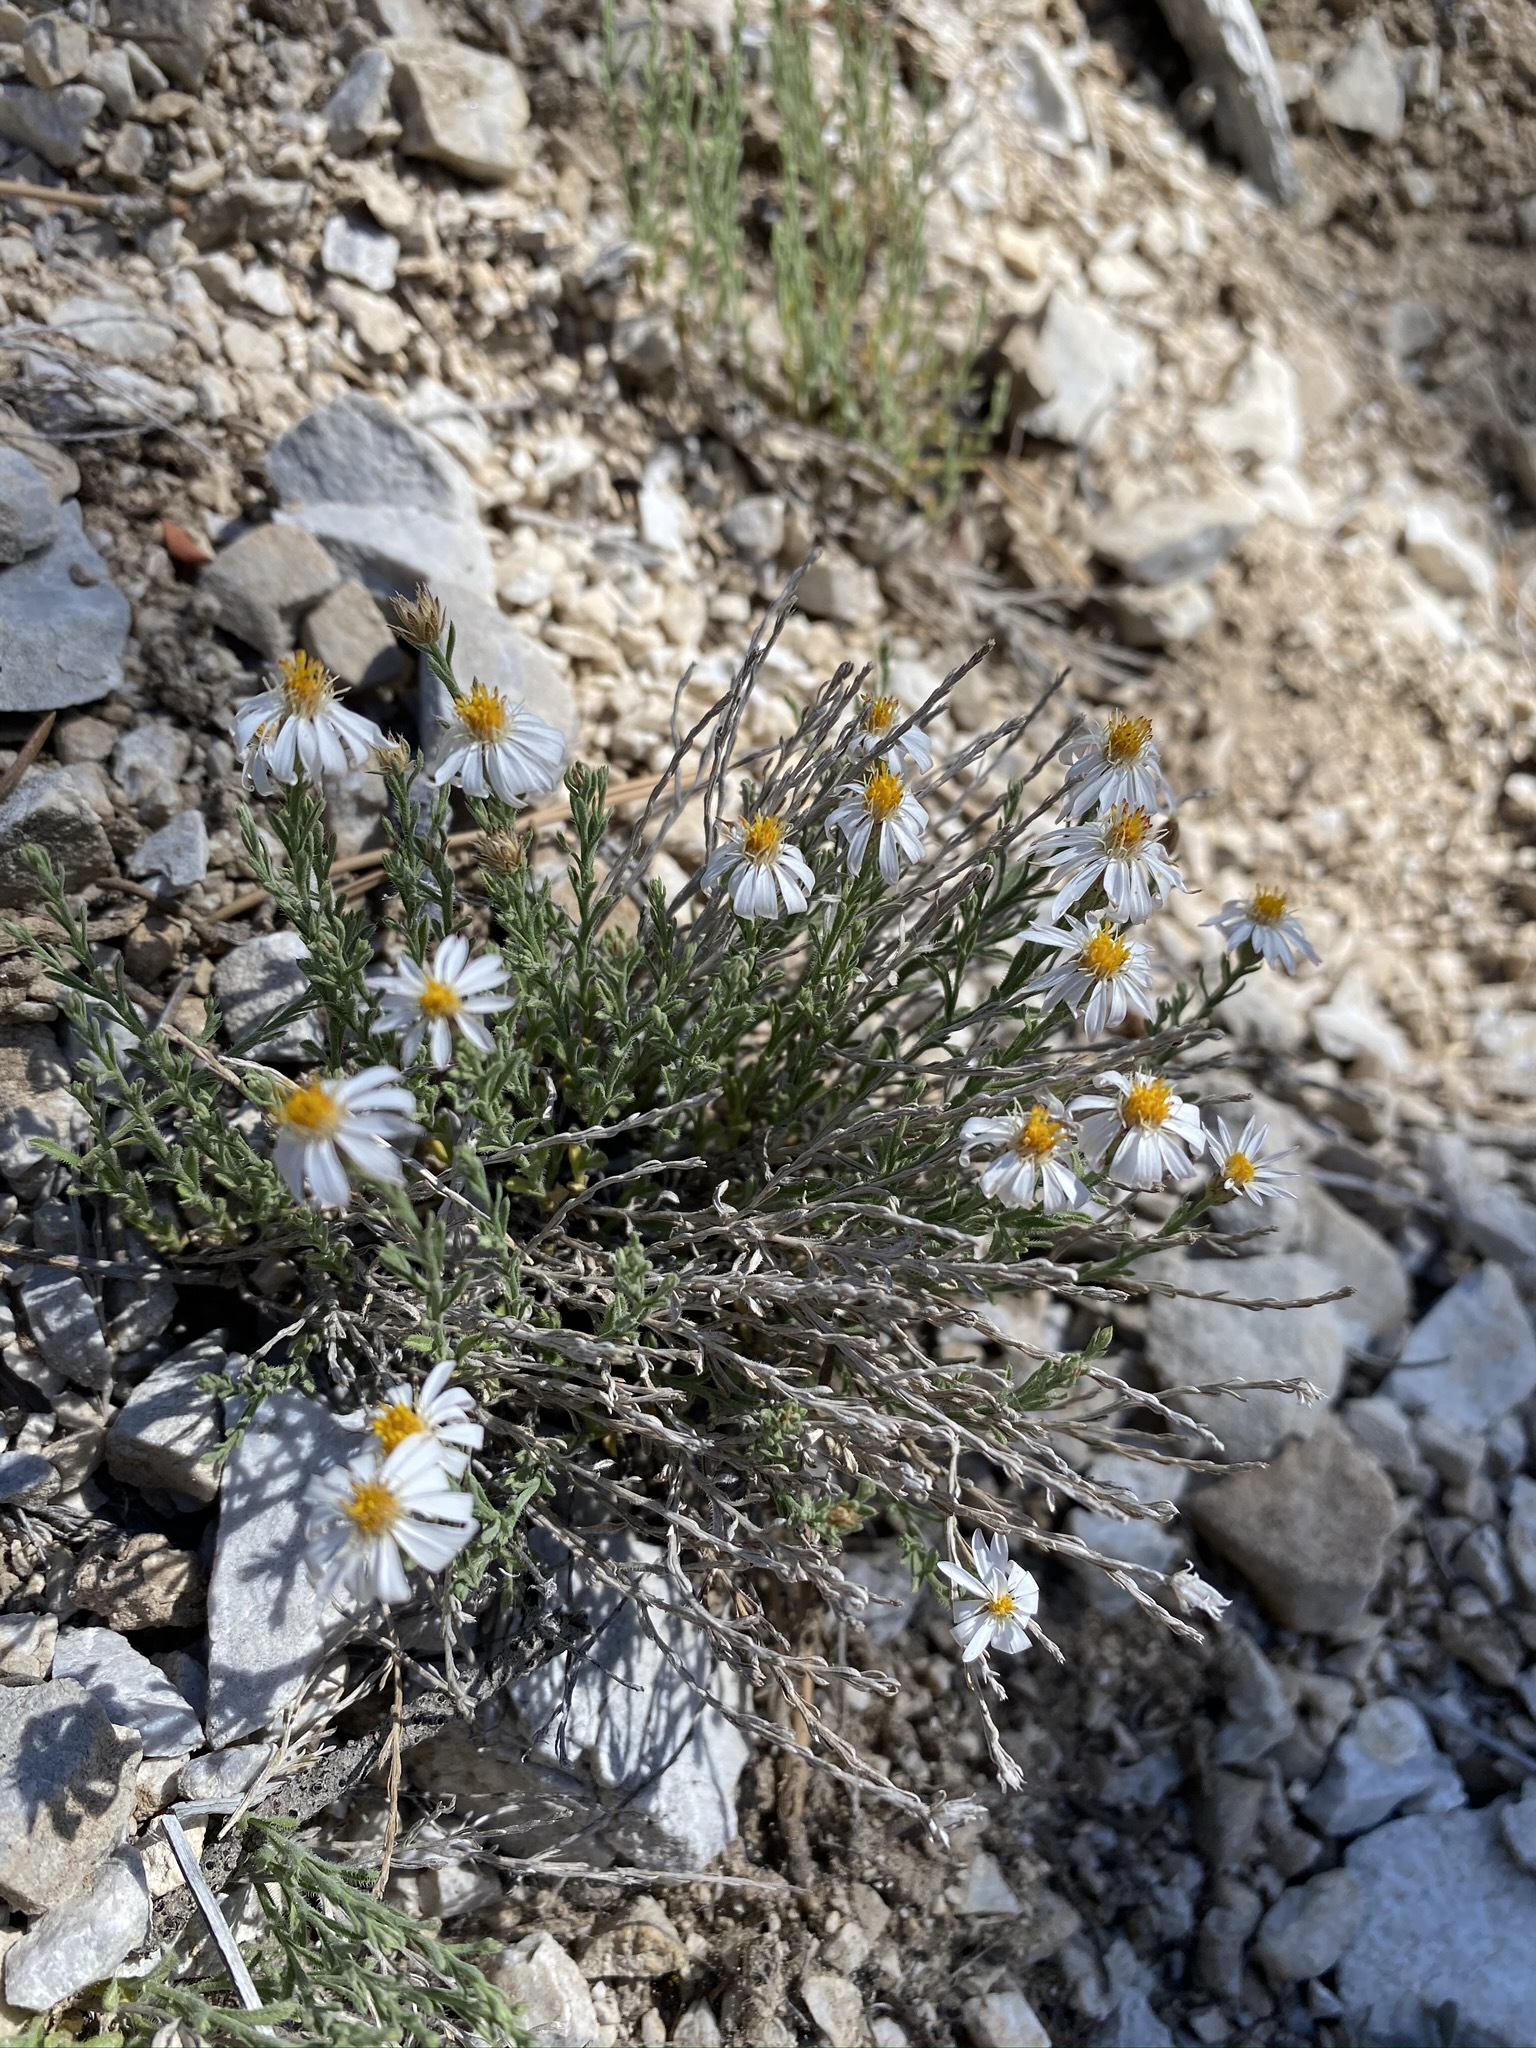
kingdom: Plantae
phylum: Tracheophyta
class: Magnoliopsida
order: Asterales
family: Asteraceae
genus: Chaetopappa
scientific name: Chaetopappa ericoides
